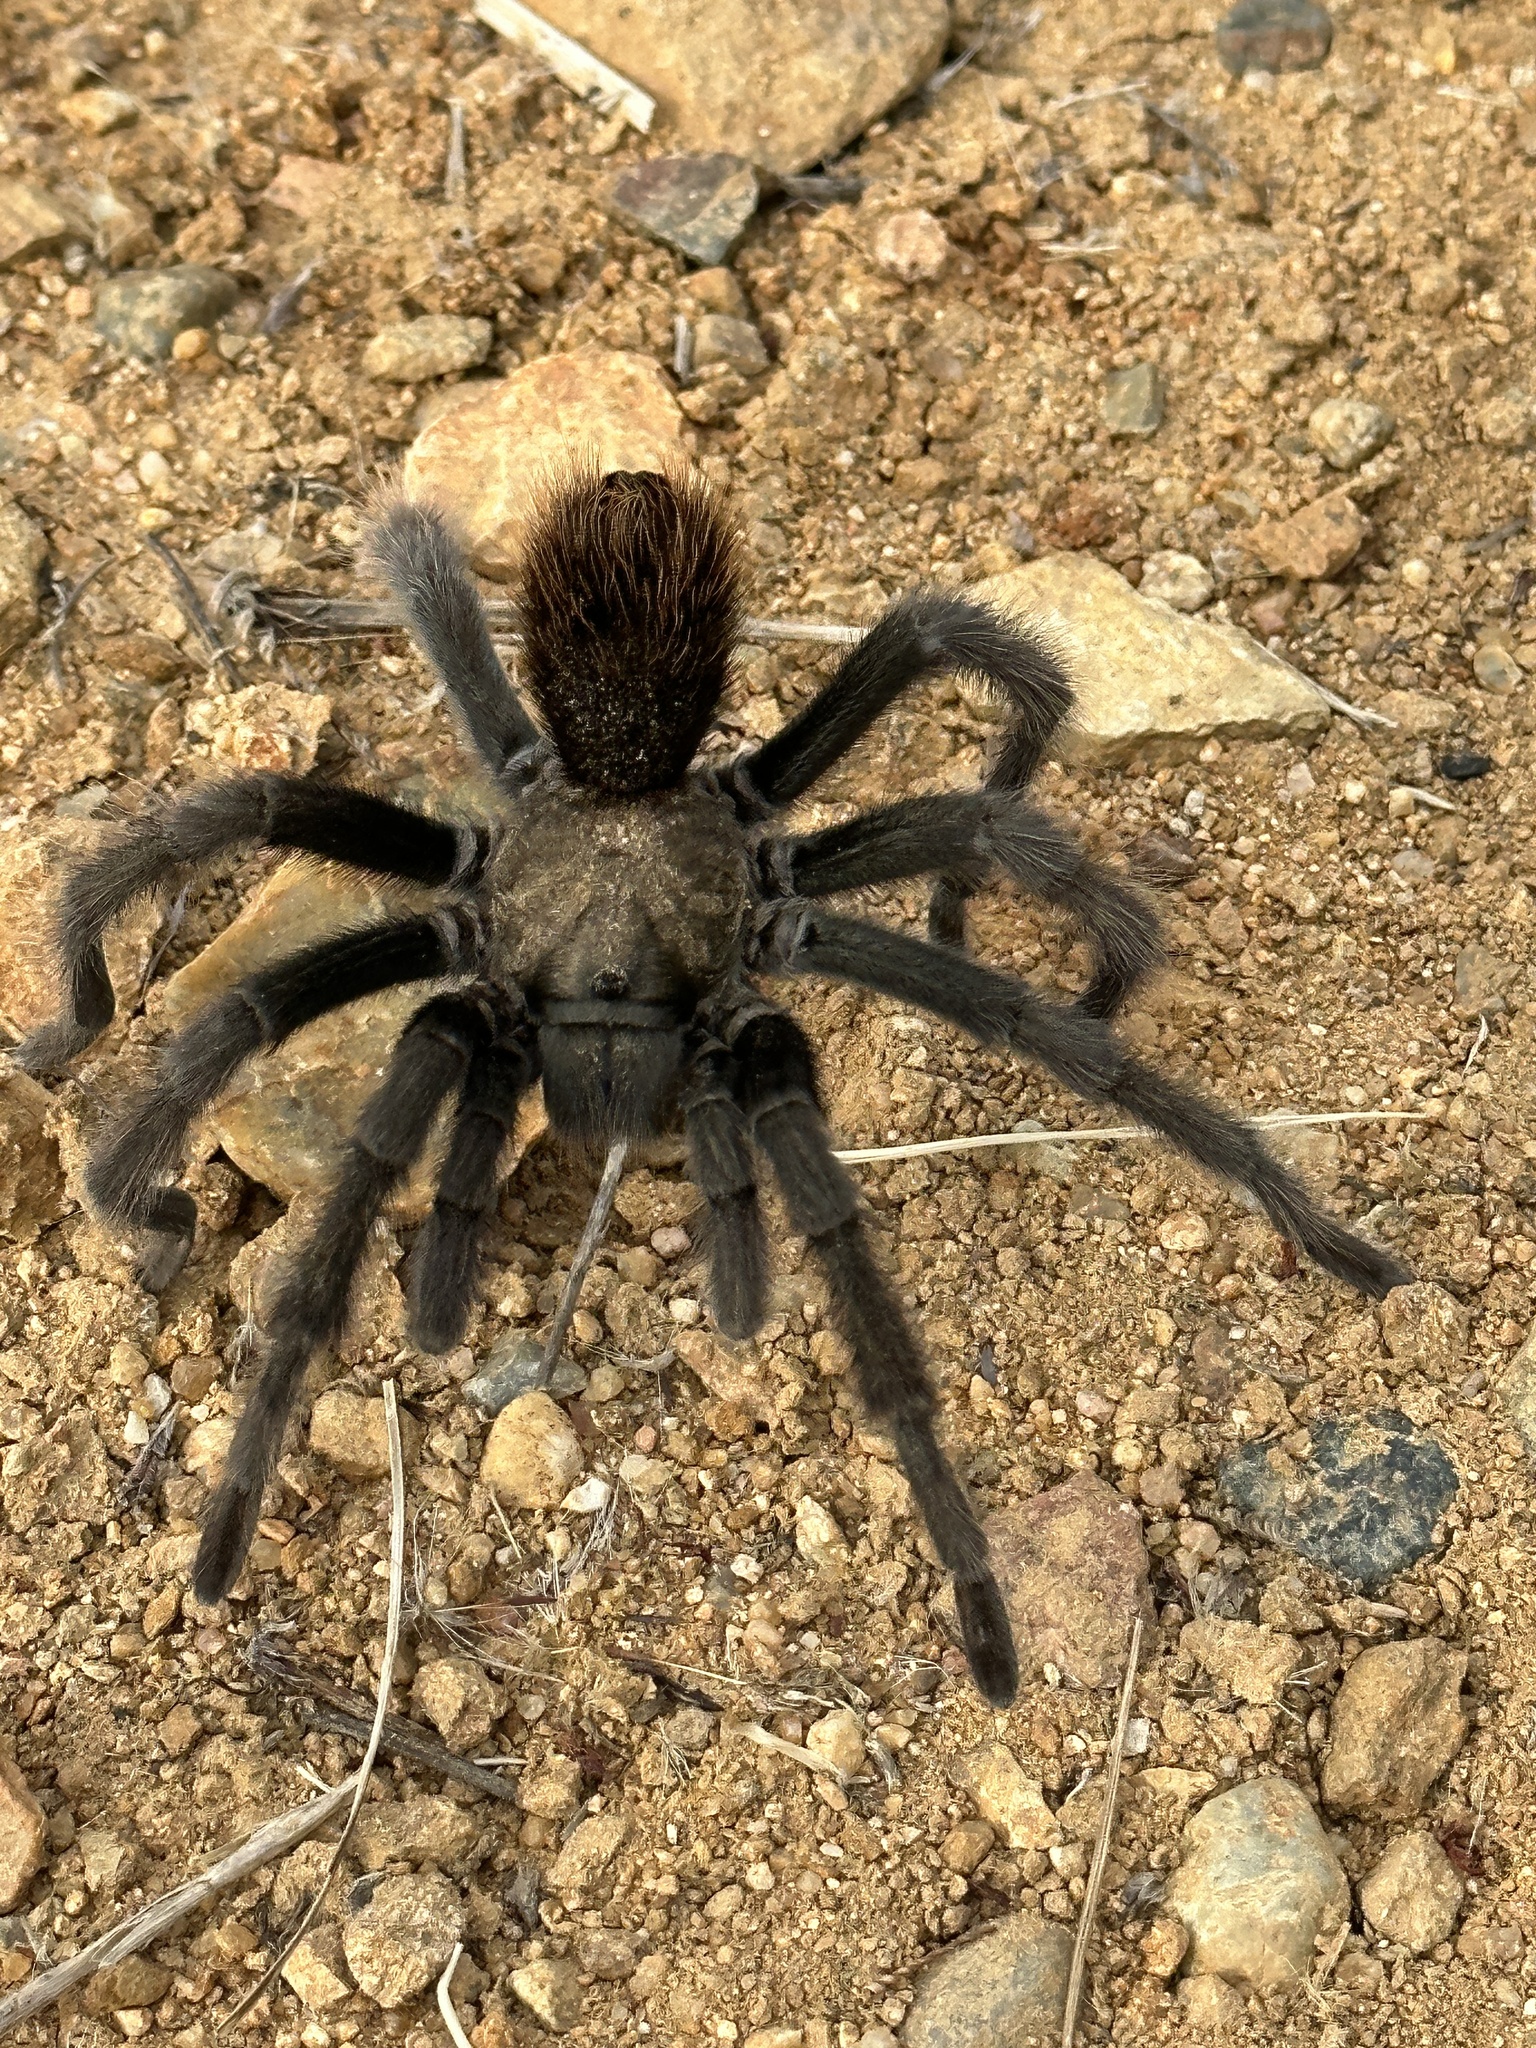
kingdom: Animalia
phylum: Arthropoda
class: Arachnida
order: Araneae
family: Theraphosidae
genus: Aphonopelma
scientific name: Aphonopelma eutylenum
